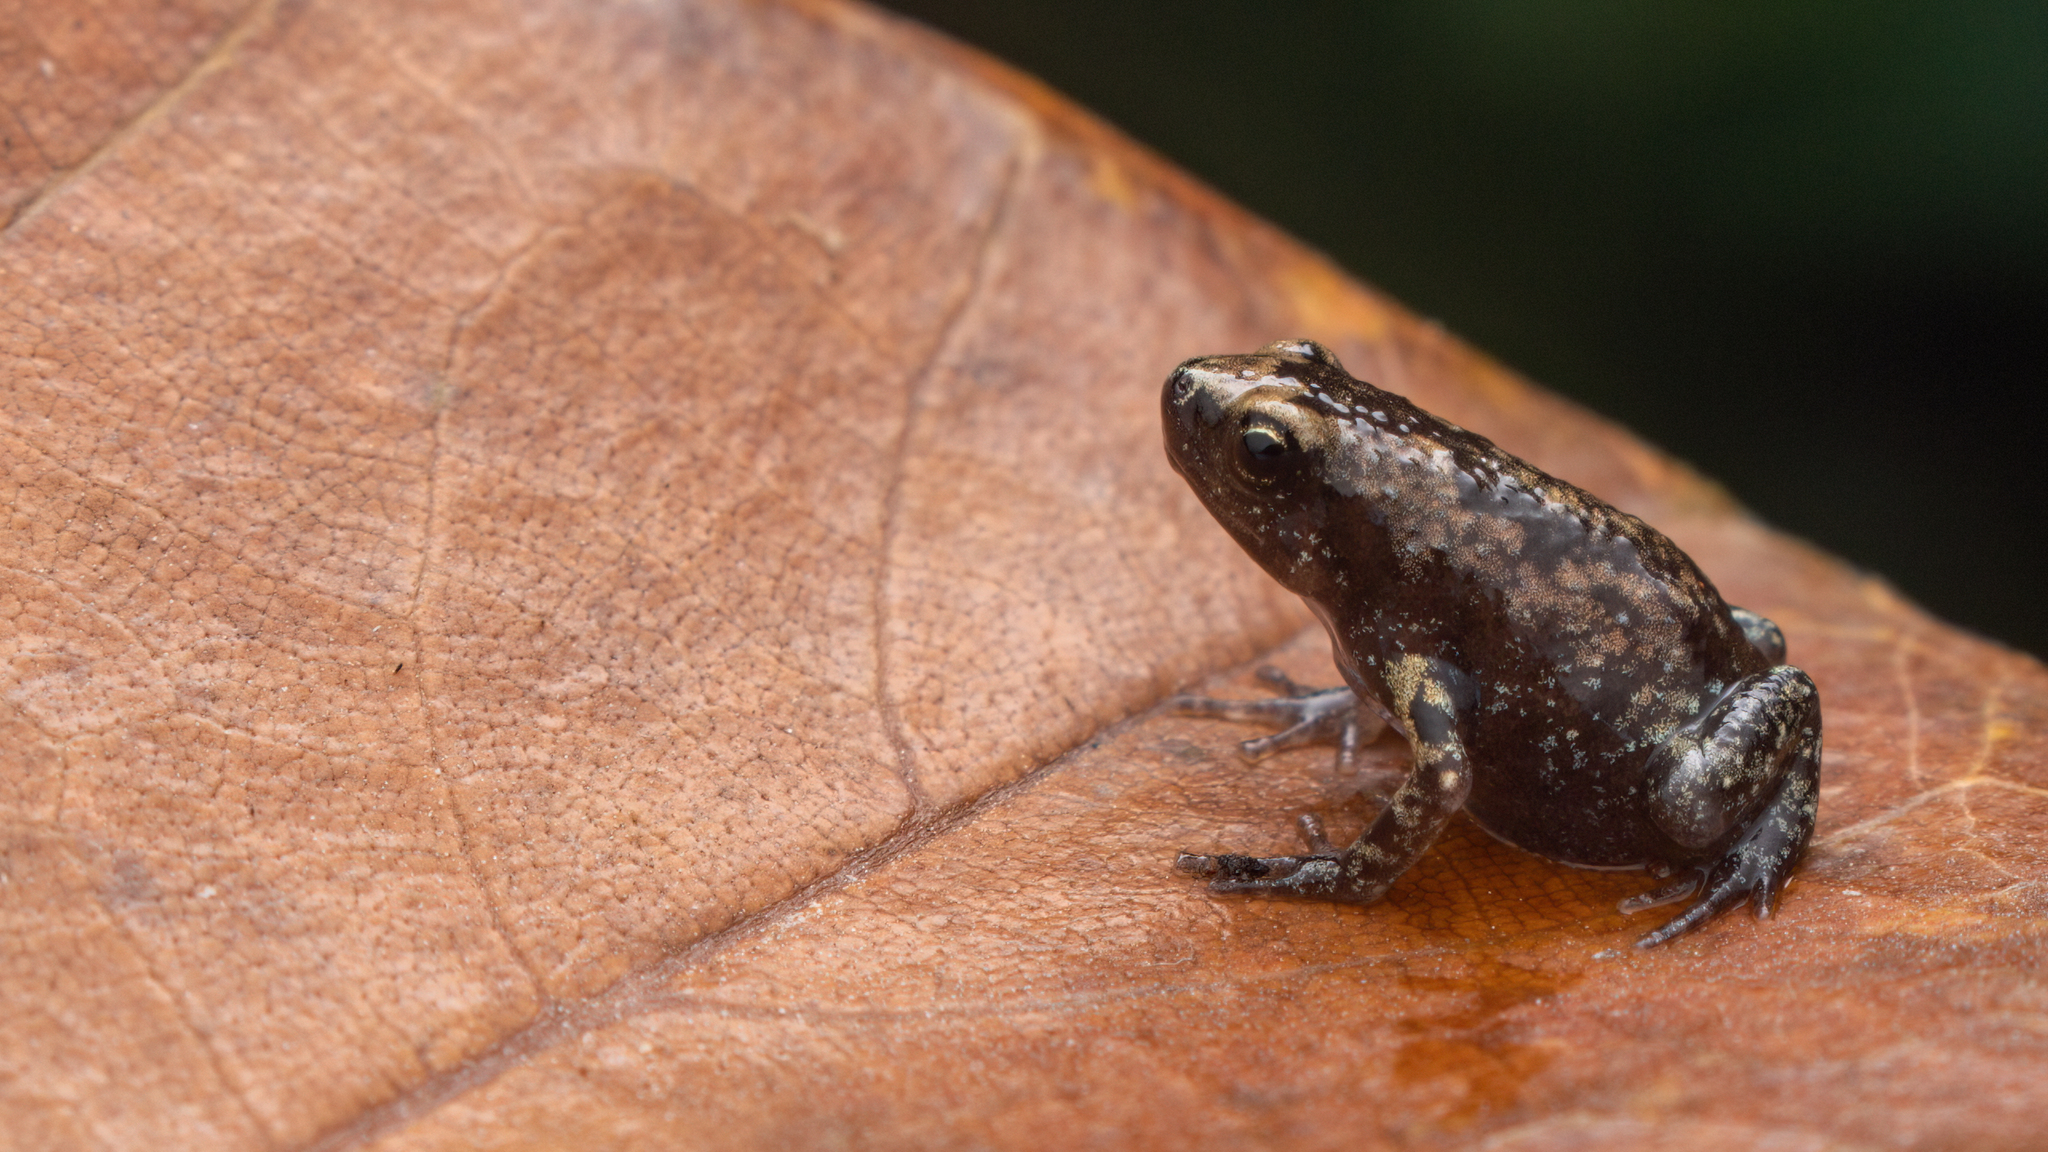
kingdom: Animalia
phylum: Chordata
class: Amphibia
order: Anura
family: Microhylidae
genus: Uperodon
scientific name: Uperodon variegatus
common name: Eluru dot frog
